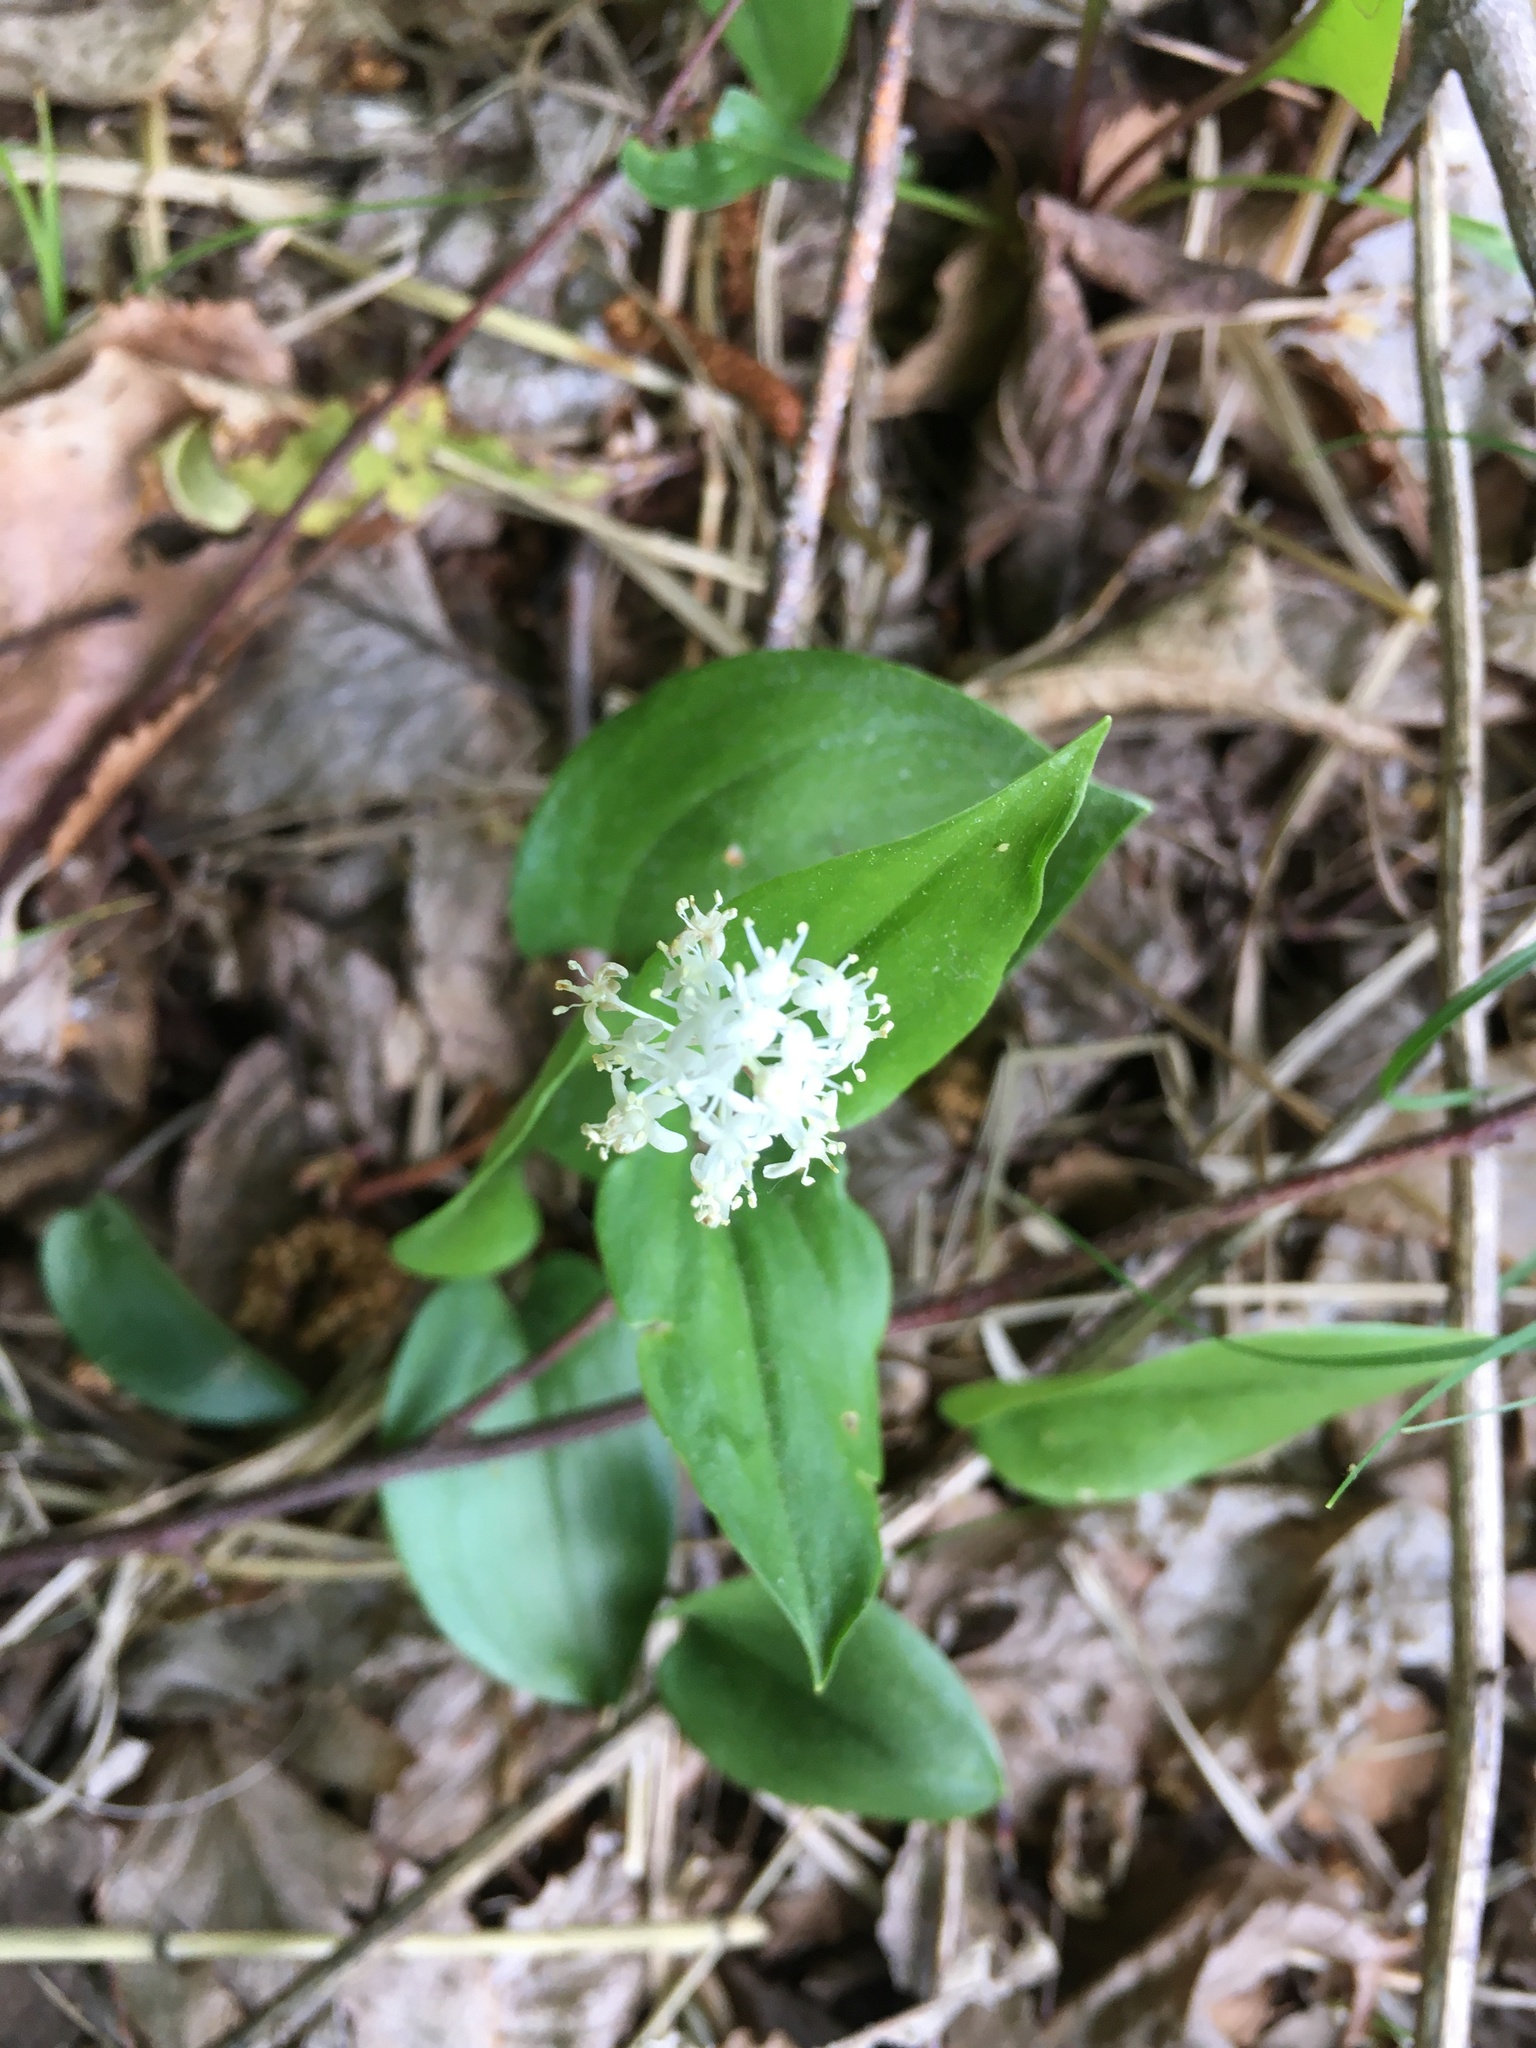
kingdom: Plantae
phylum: Tracheophyta
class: Liliopsida
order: Asparagales
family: Asparagaceae
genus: Maianthemum
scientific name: Maianthemum canadense
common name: False lily-of-the-valley
